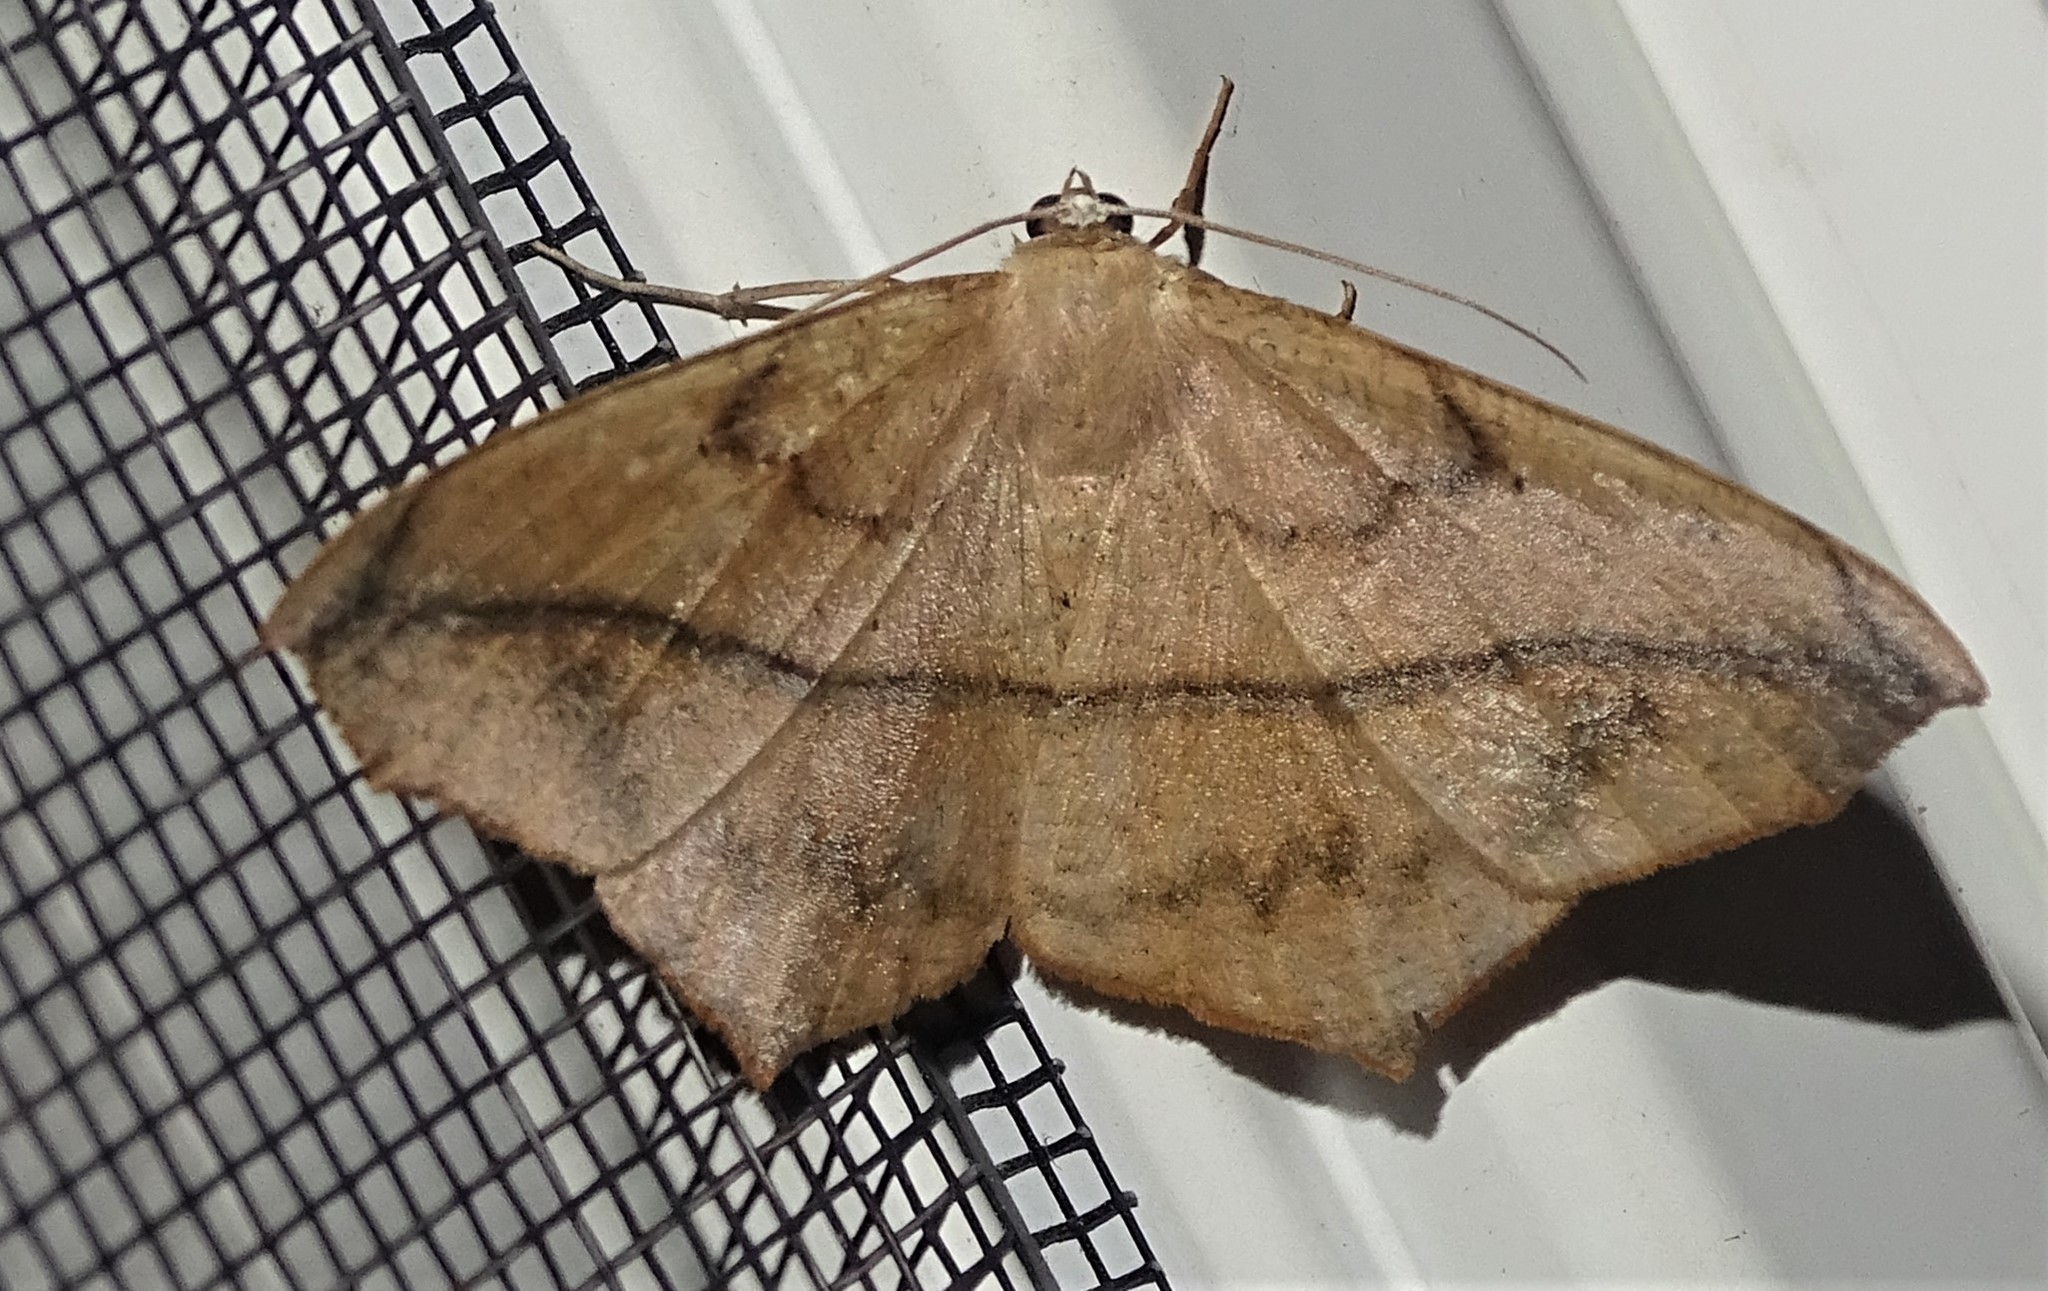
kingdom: Animalia
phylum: Arthropoda
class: Insecta
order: Lepidoptera
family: Geometridae
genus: Prochoerodes
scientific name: Prochoerodes lineola
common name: Large maple spanworm
